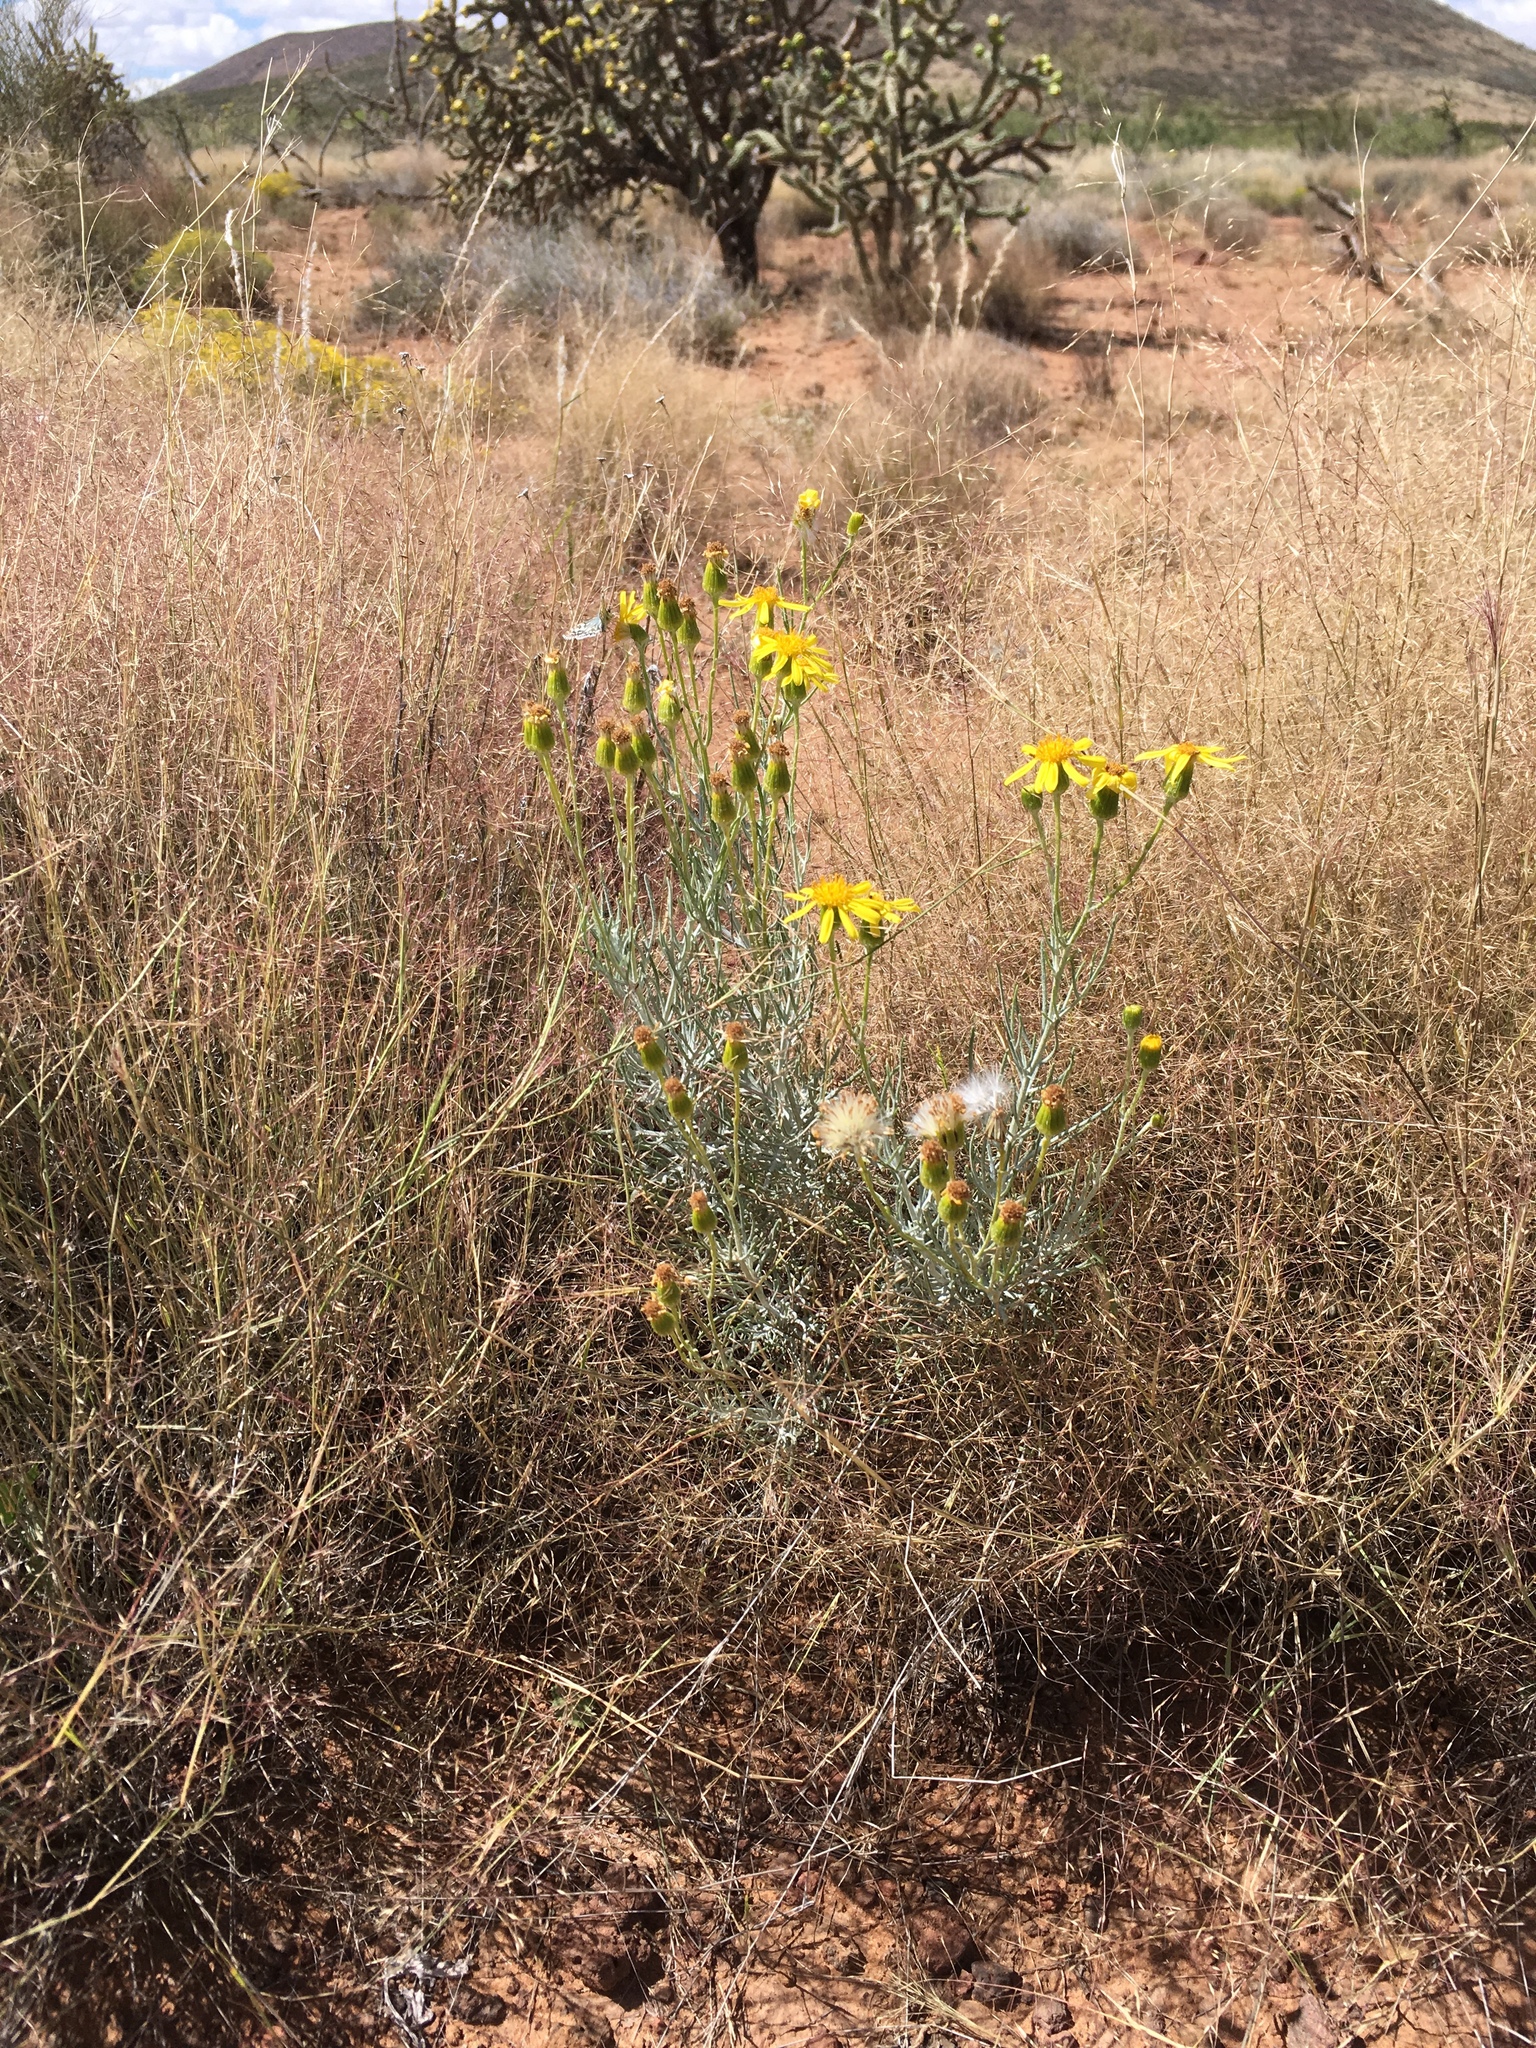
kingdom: Plantae
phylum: Tracheophyta
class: Magnoliopsida
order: Asterales
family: Asteraceae
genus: Senecio
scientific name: Senecio flaccidus
